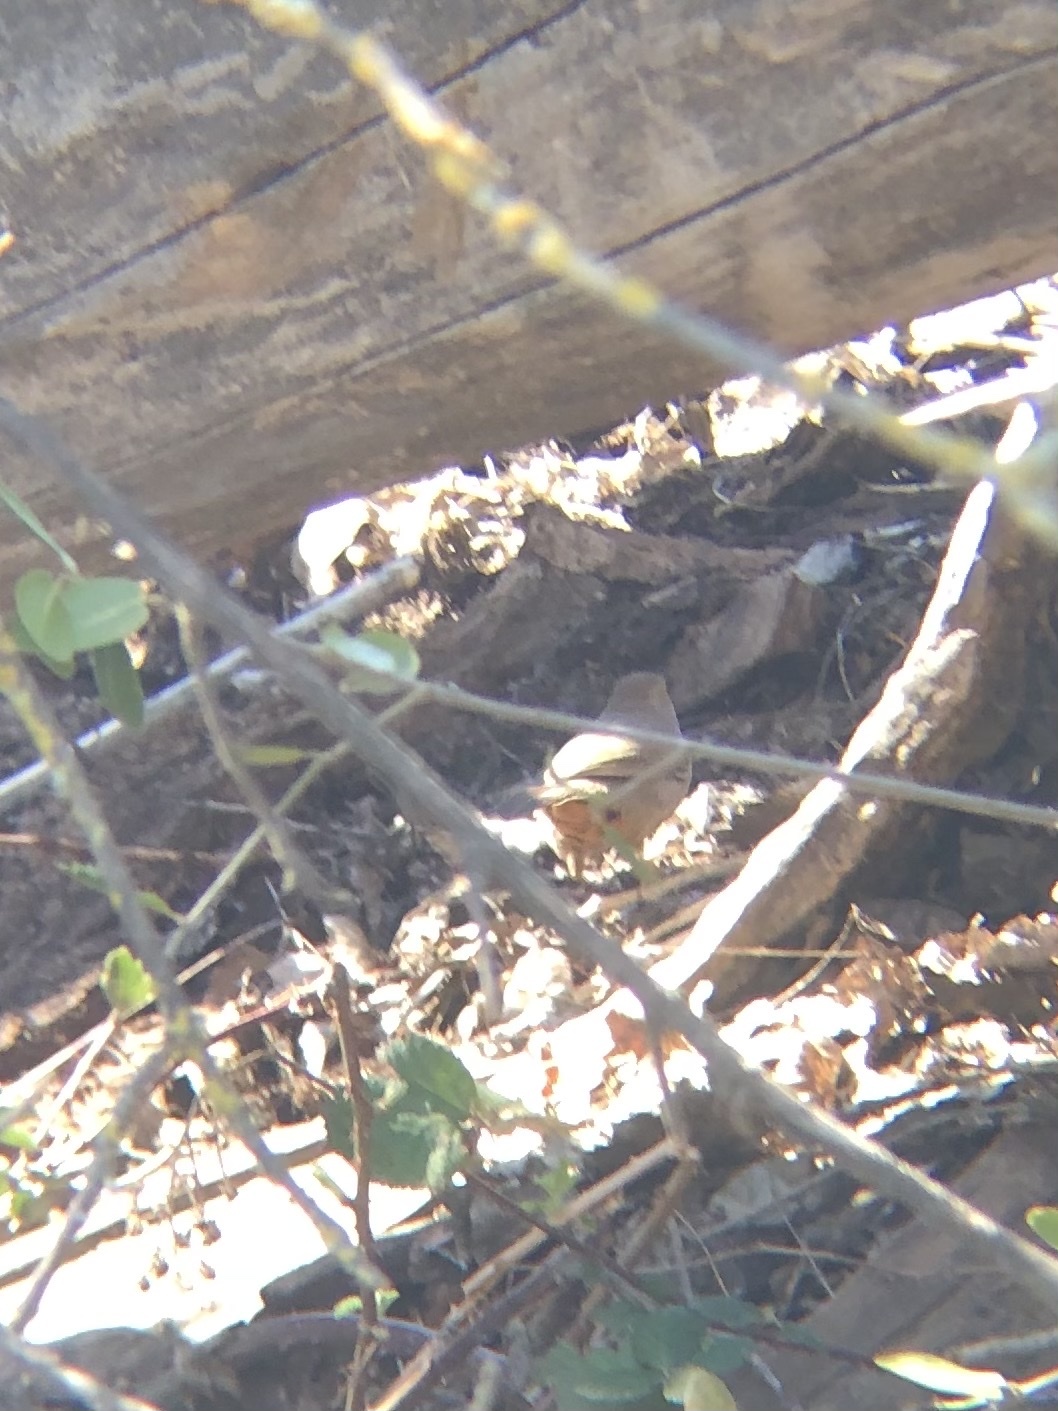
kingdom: Animalia
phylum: Chordata
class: Aves
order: Passeriformes
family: Passerellidae
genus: Melozone
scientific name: Melozone crissalis
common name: California towhee
